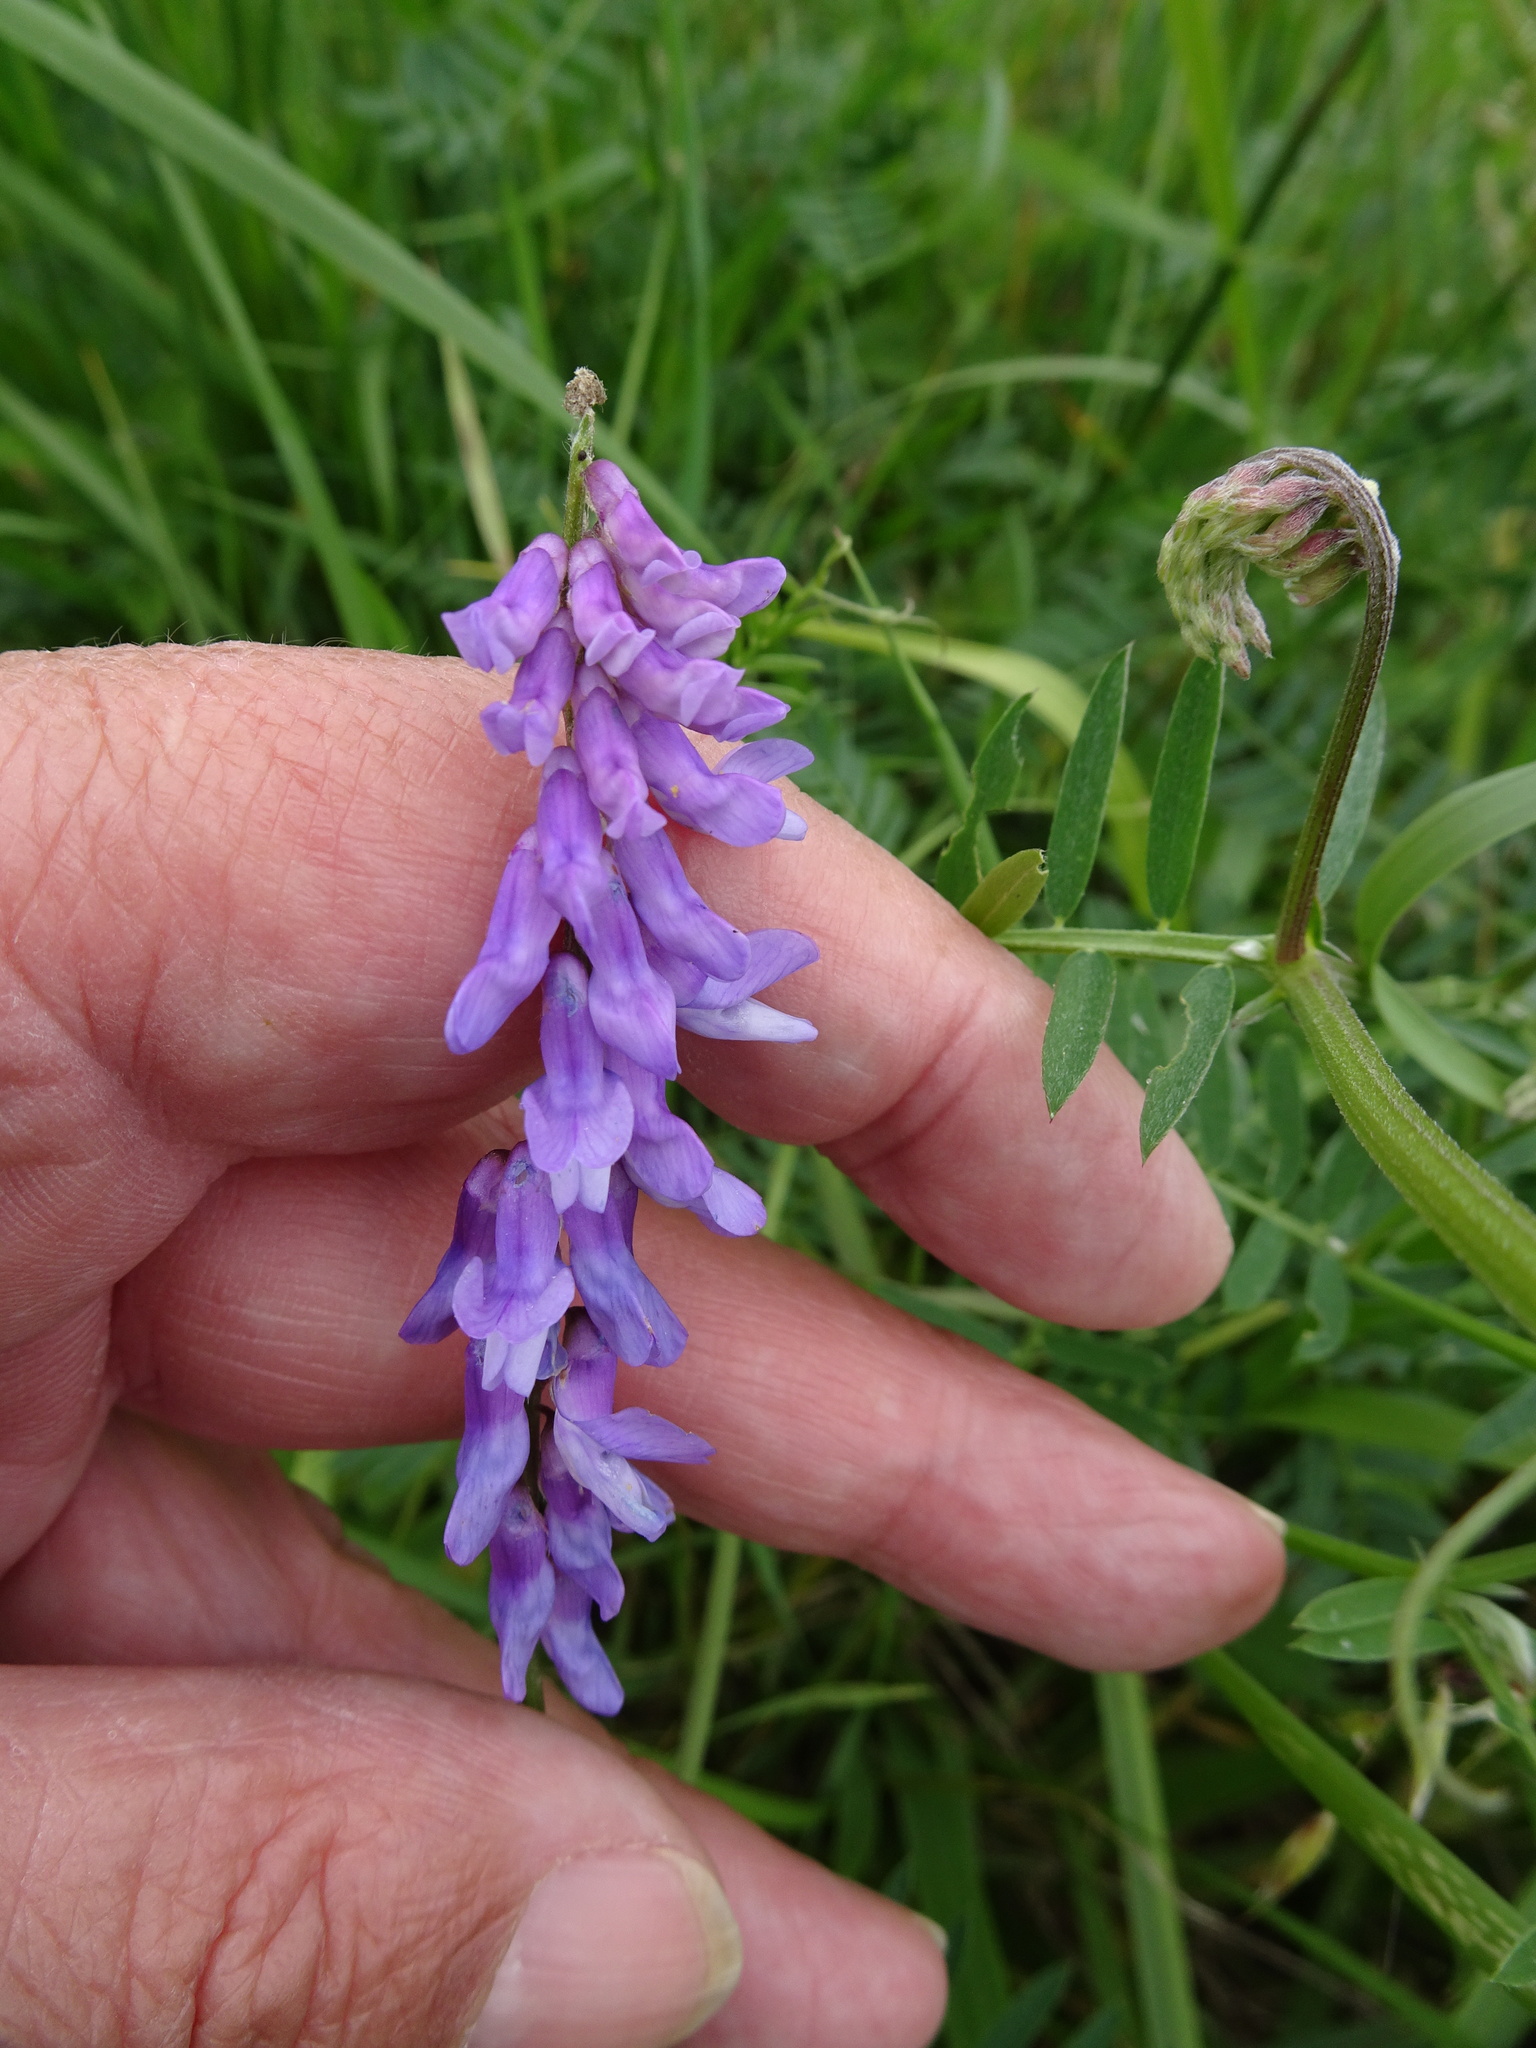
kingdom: Plantae
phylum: Tracheophyta
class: Magnoliopsida
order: Fabales
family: Fabaceae
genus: Vicia
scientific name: Vicia cracca
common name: Bird vetch
